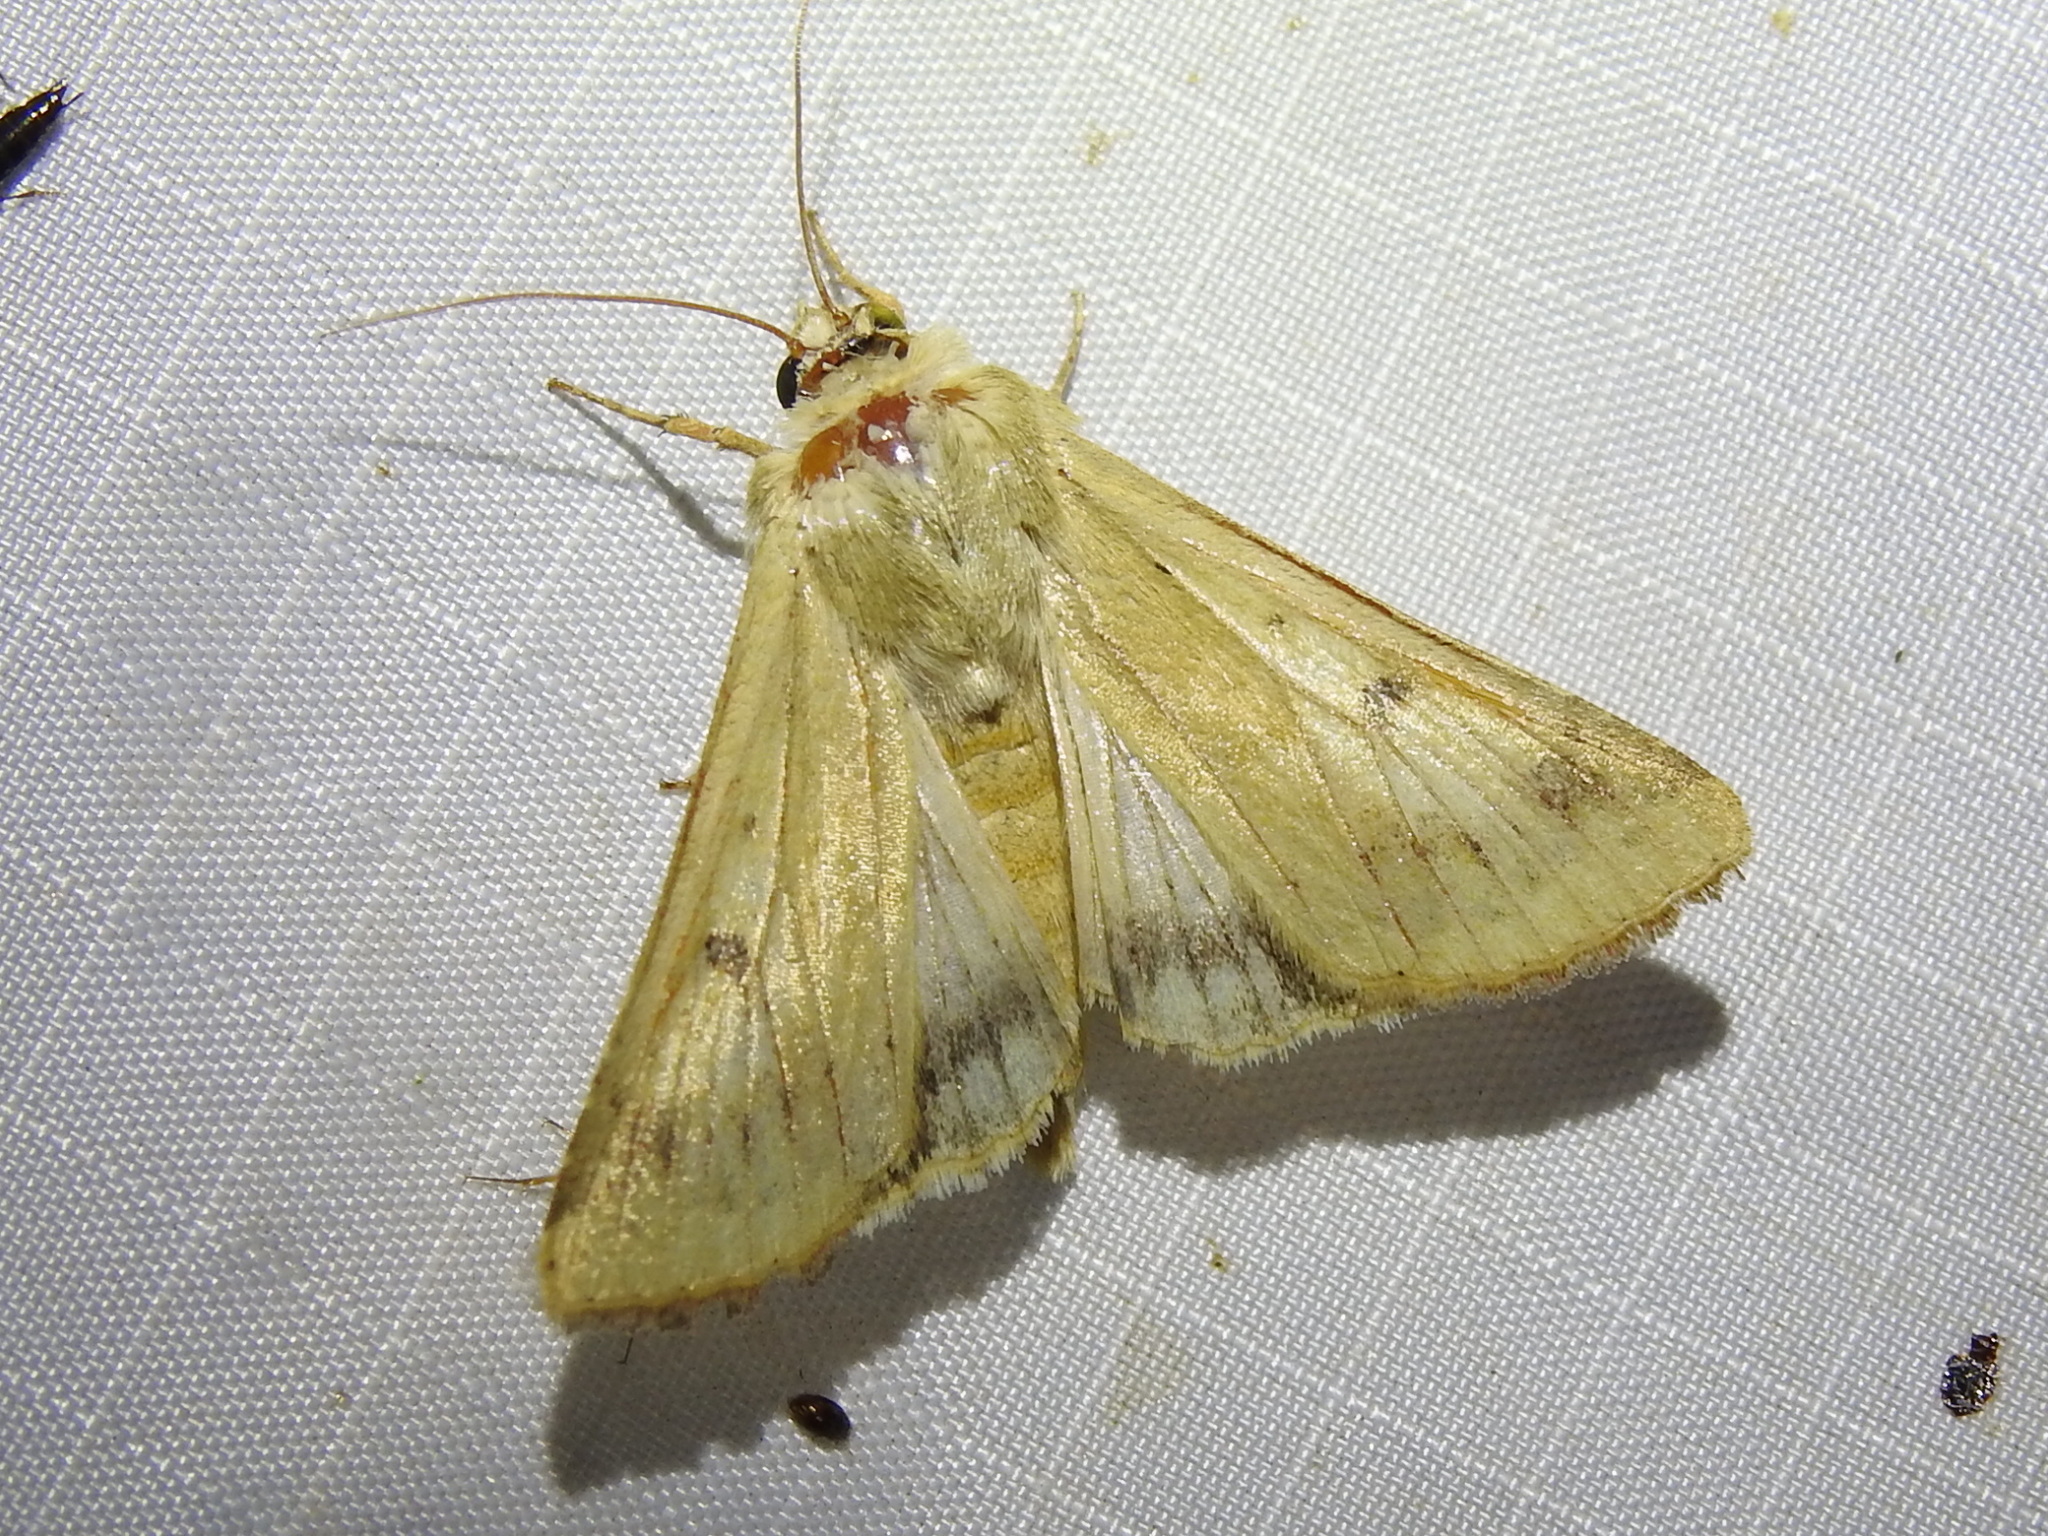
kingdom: Animalia
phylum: Arthropoda
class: Insecta
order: Lepidoptera
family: Noctuidae
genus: Helicoverpa
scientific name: Helicoverpa zea
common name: Bollworm
